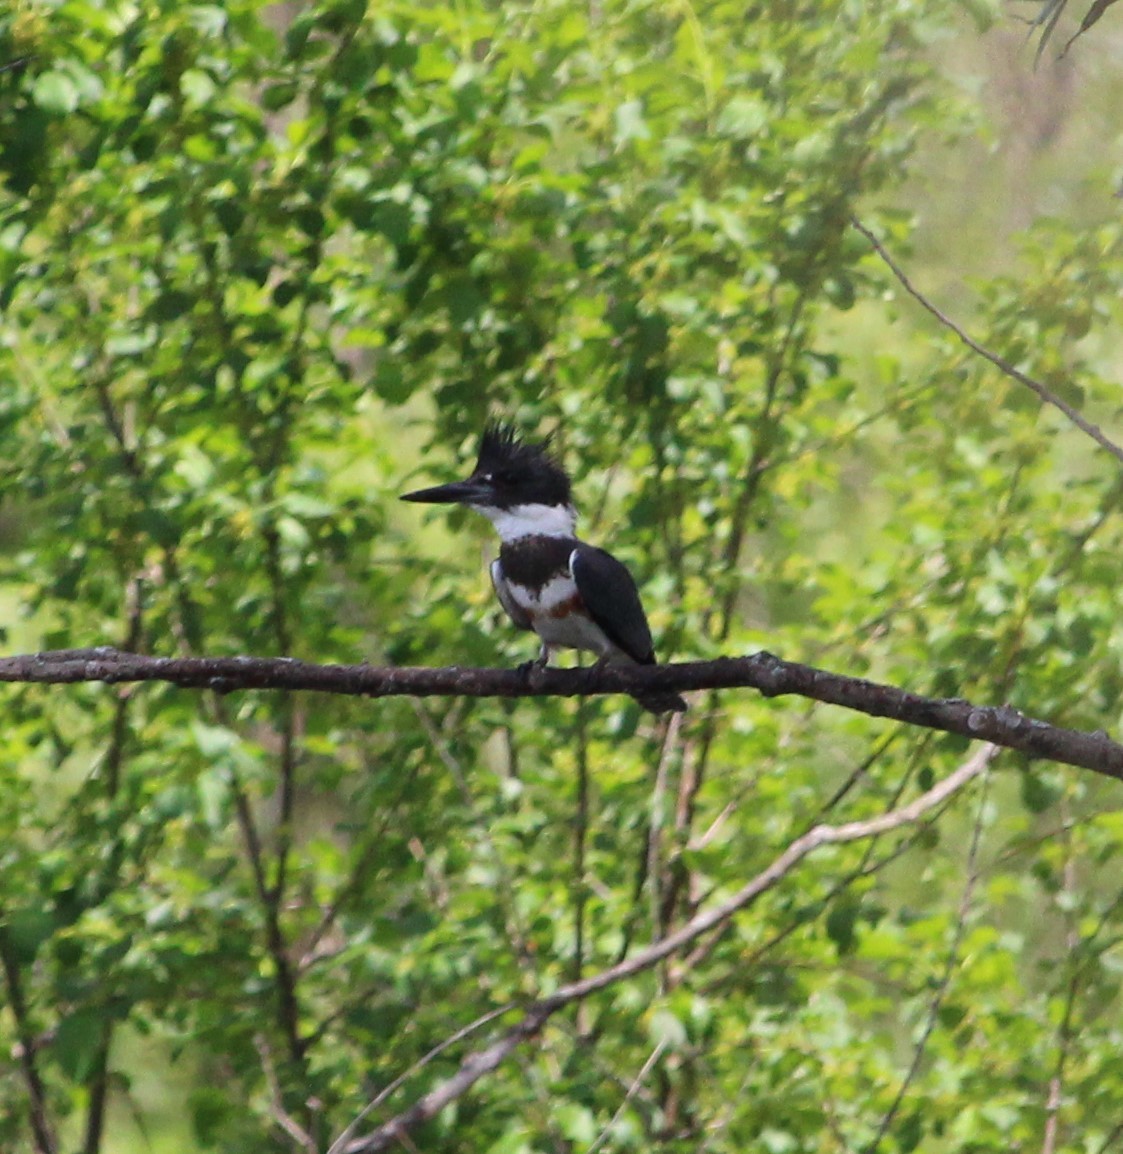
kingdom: Animalia
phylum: Chordata
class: Aves
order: Coraciiformes
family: Alcedinidae
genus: Megaceryle
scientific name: Megaceryle alcyon
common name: Belted kingfisher
